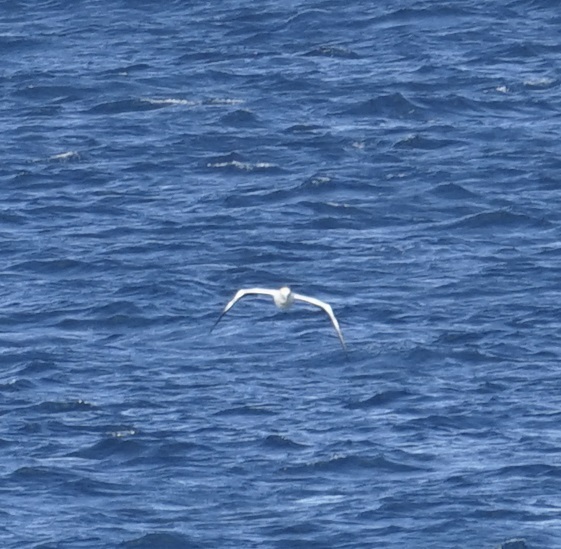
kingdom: Animalia
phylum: Chordata
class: Aves
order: Suliformes
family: Sulidae
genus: Morus
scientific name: Morus serrator
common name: Australasian gannet
